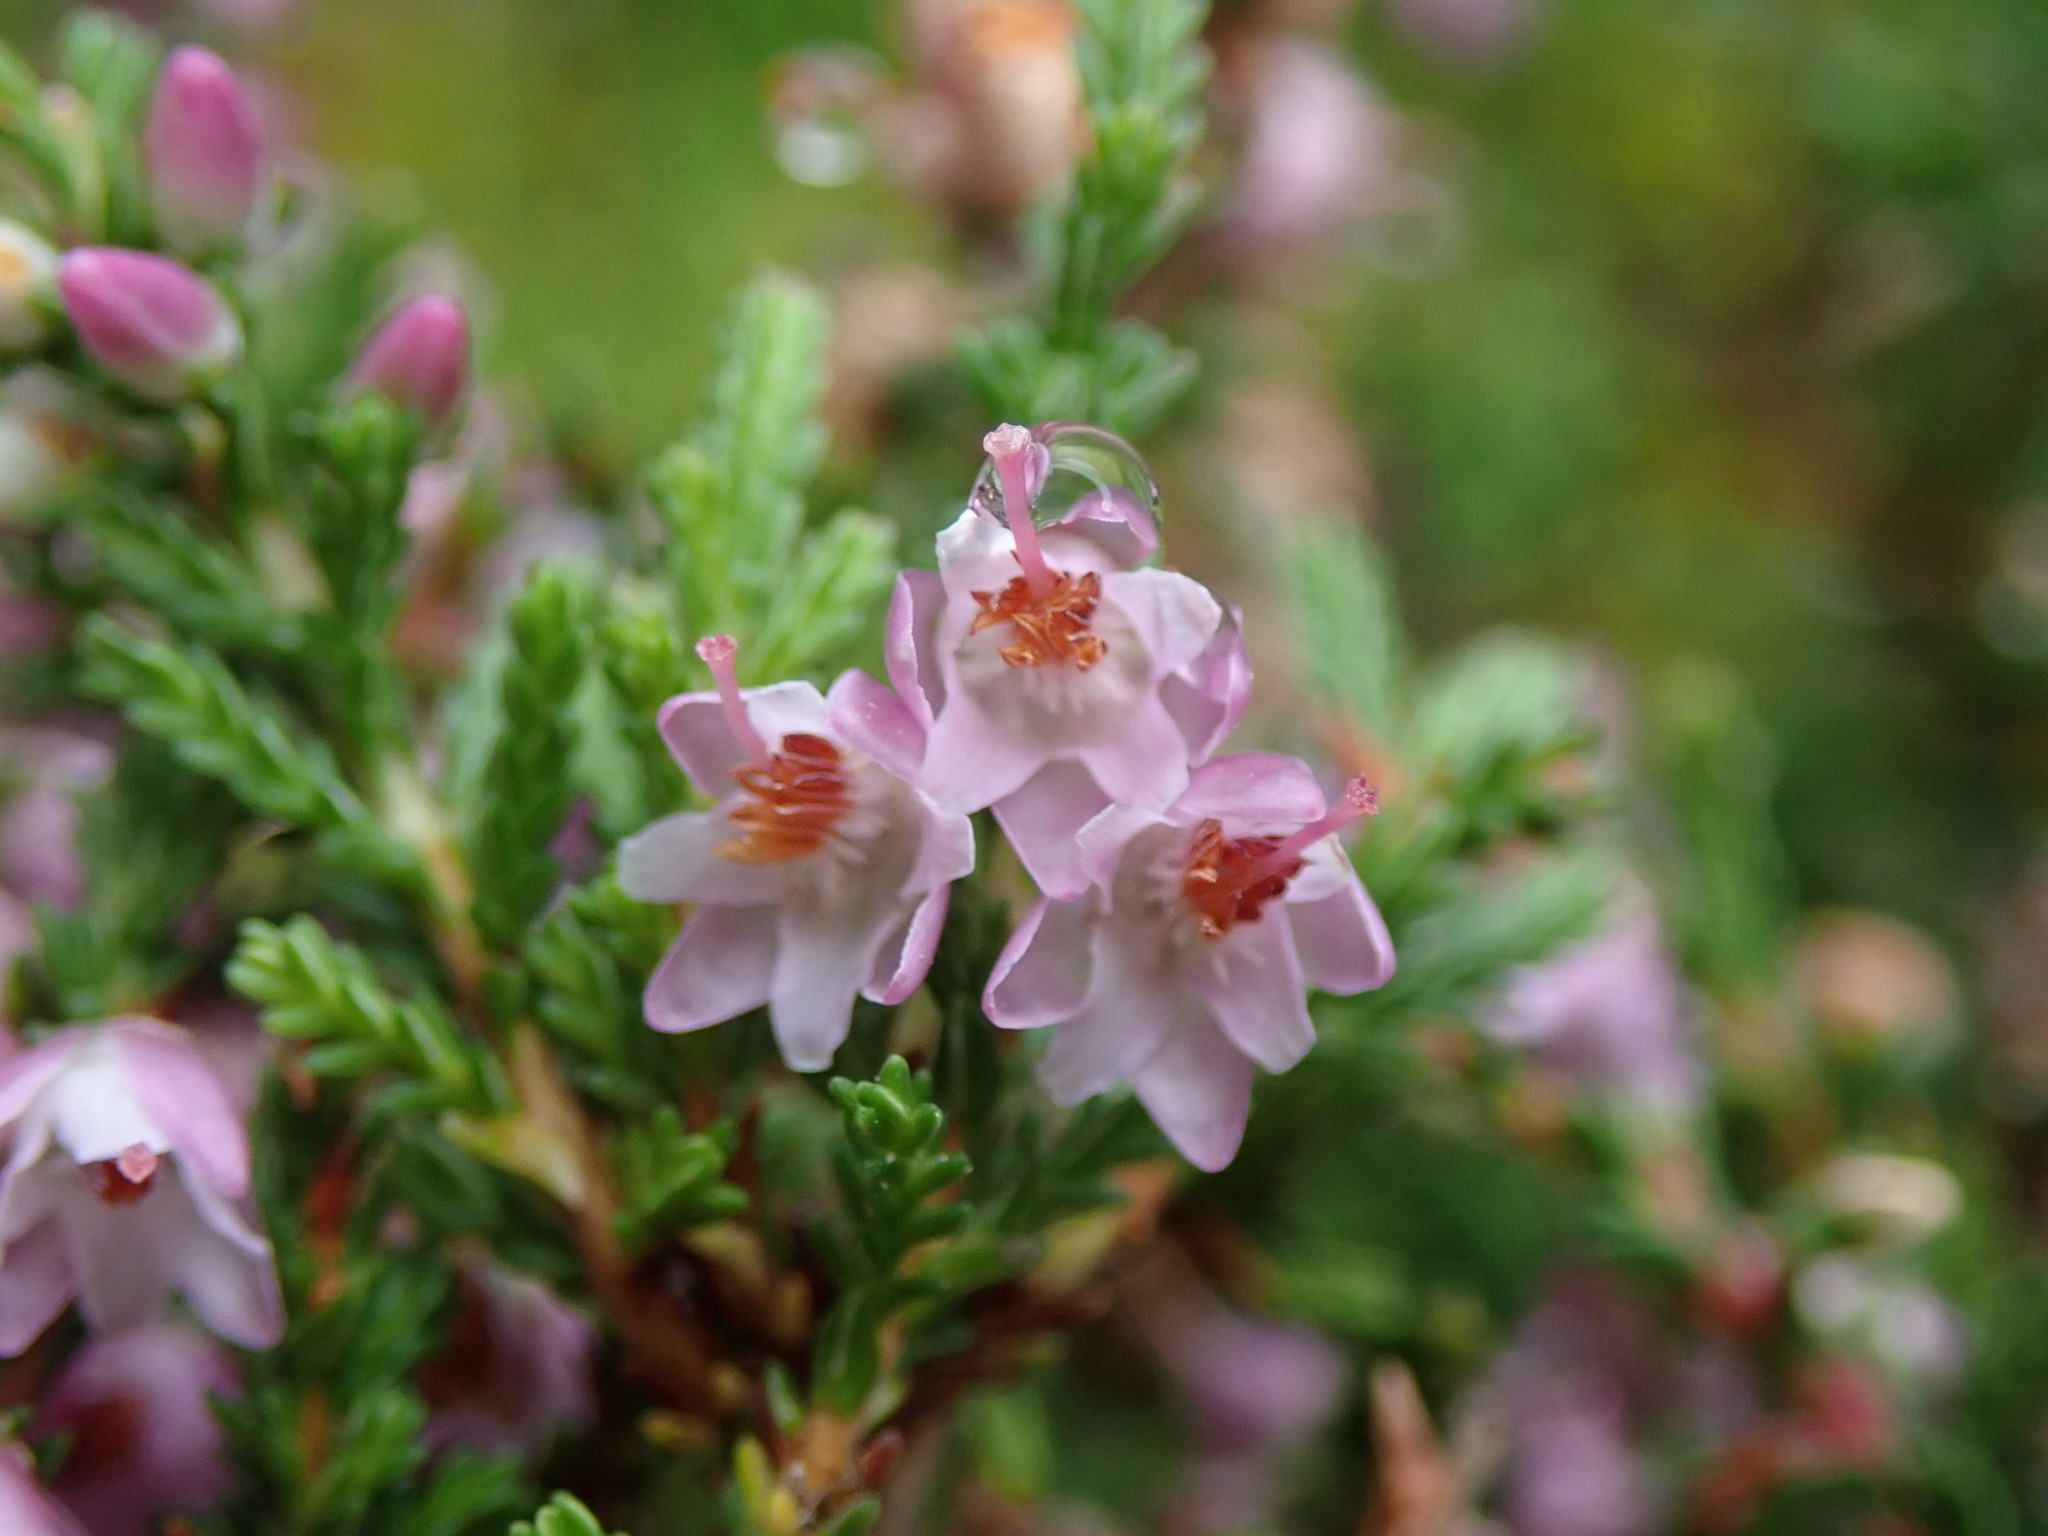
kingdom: Plantae
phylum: Tracheophyta
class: Magnoliopsida
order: Ericales
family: Ericaceae
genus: Calluna
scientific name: Calluna vulgaris
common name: Heather
